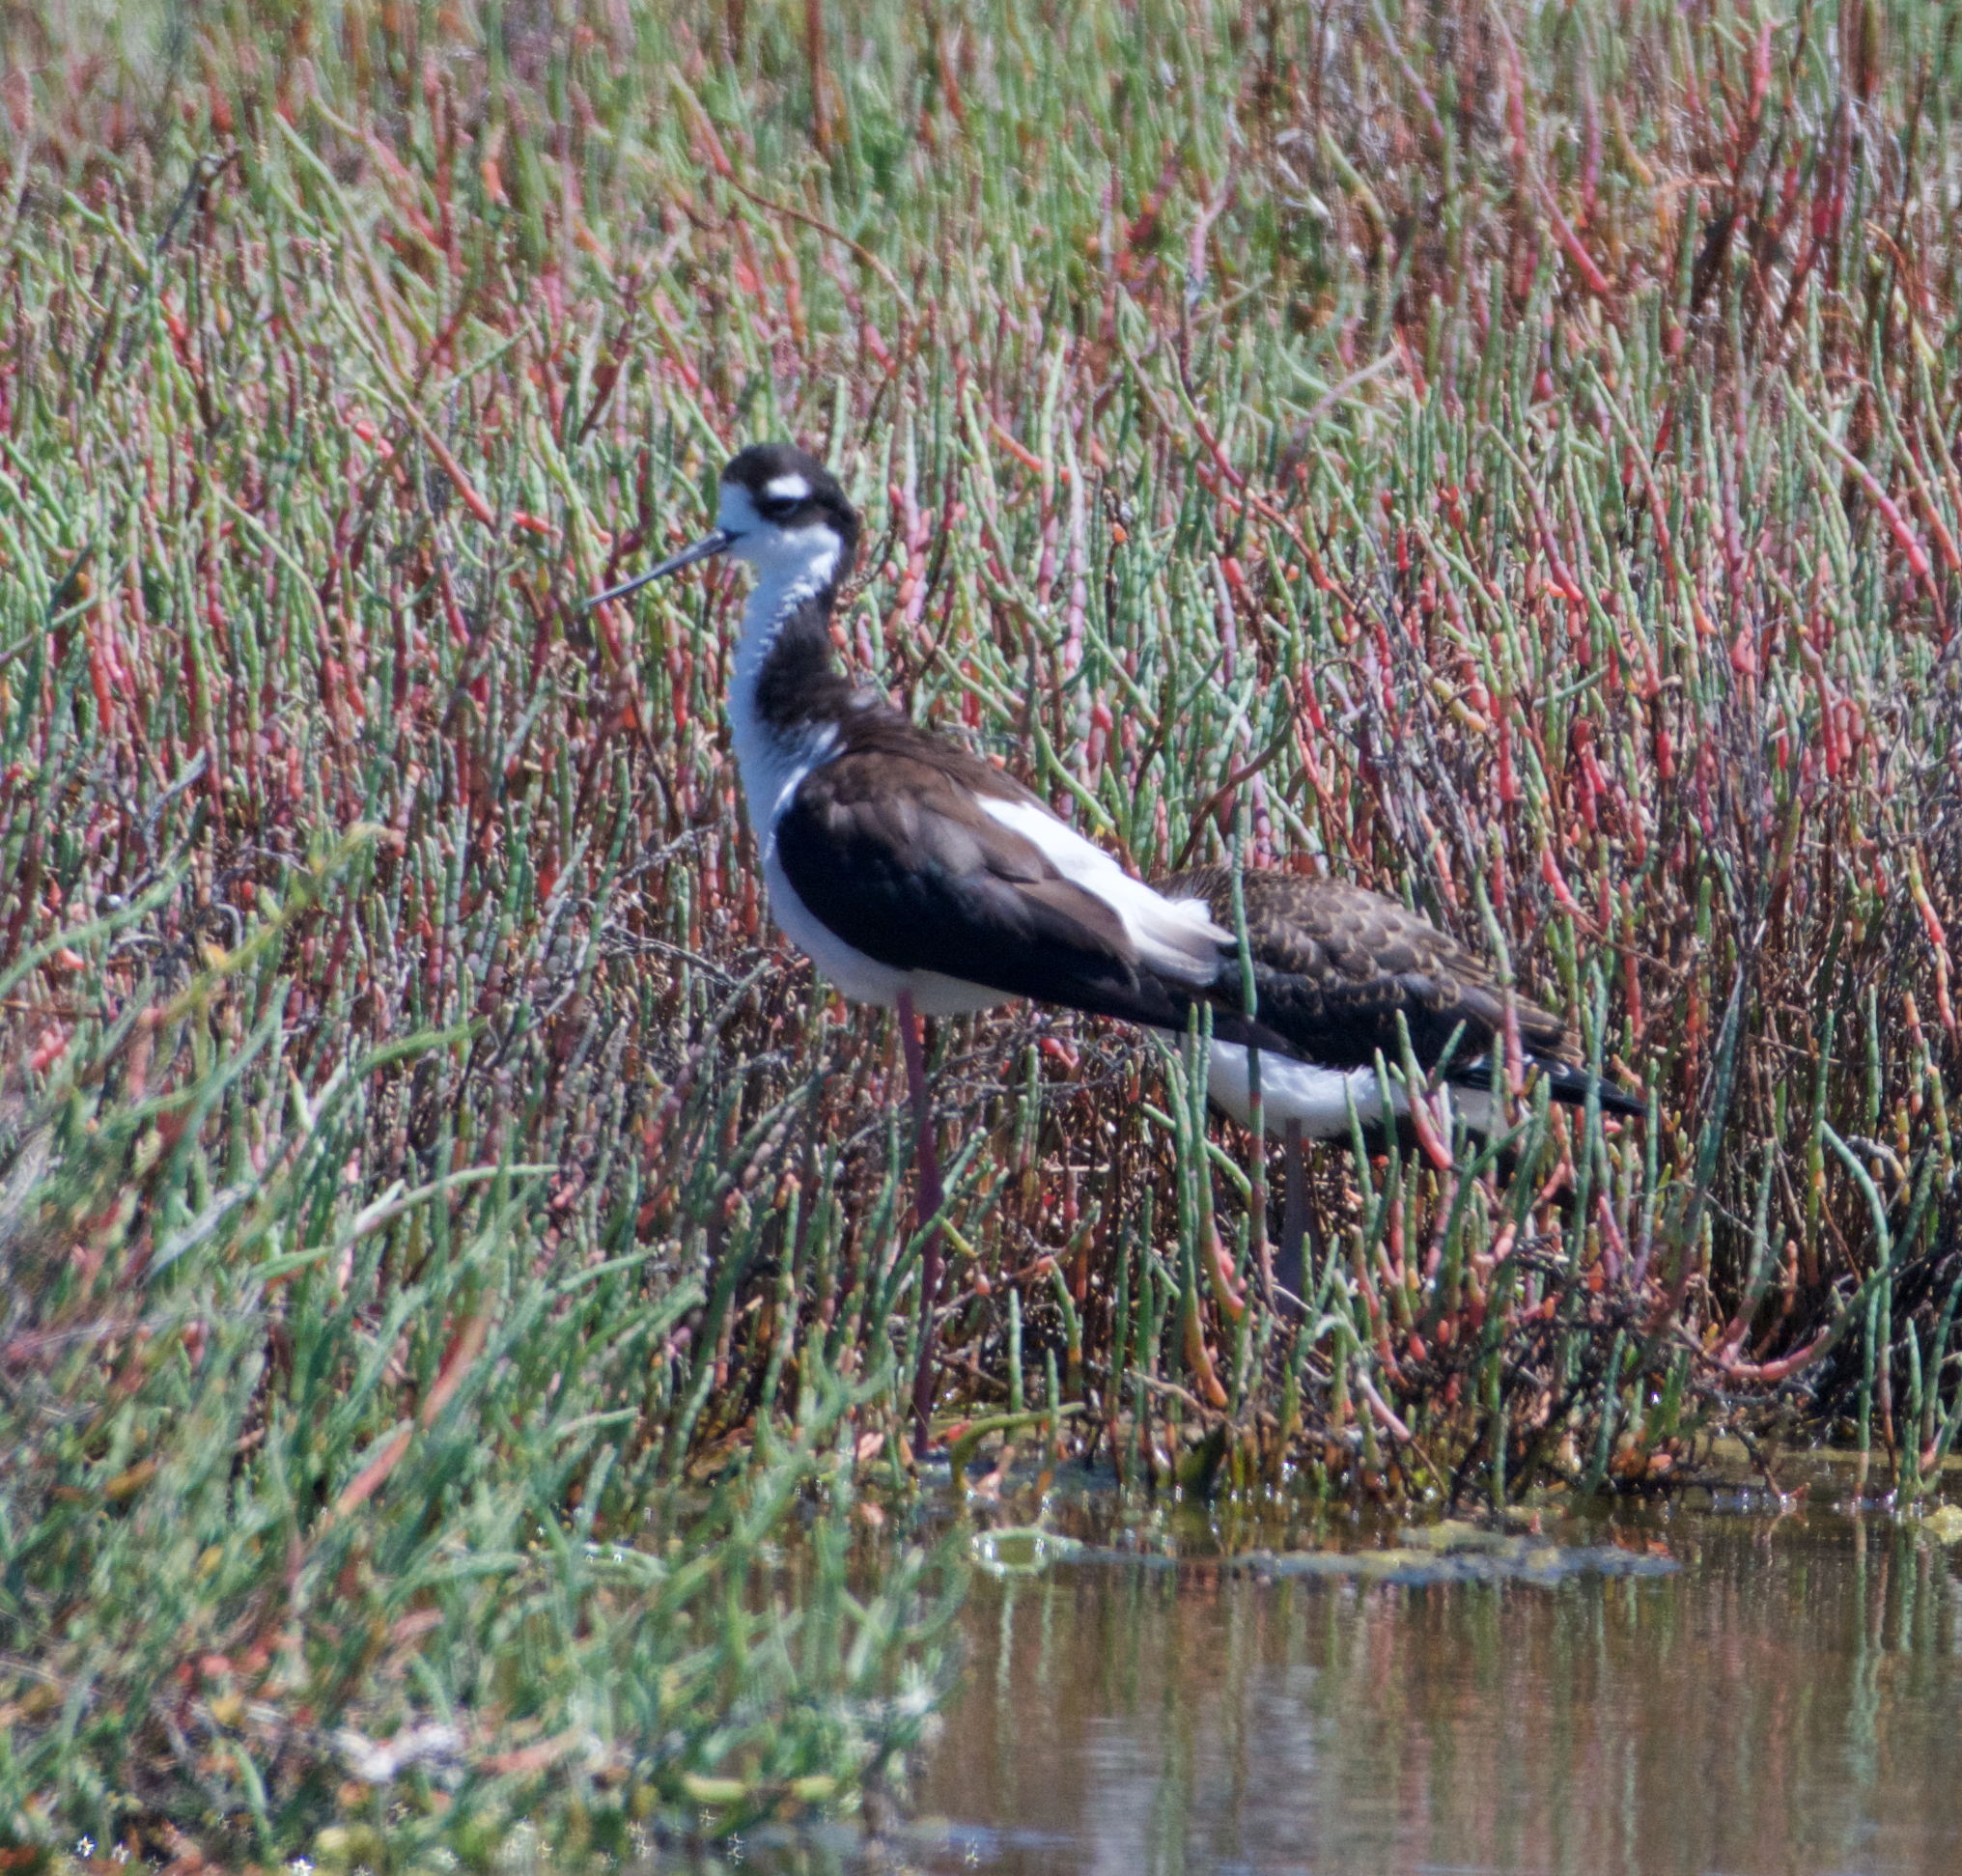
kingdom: Animalia
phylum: Chordata
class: Aves
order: Charadriiformes
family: Recurvirostridae
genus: Himantopus
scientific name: Himantopus mexicanus
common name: Black-necked stilt
